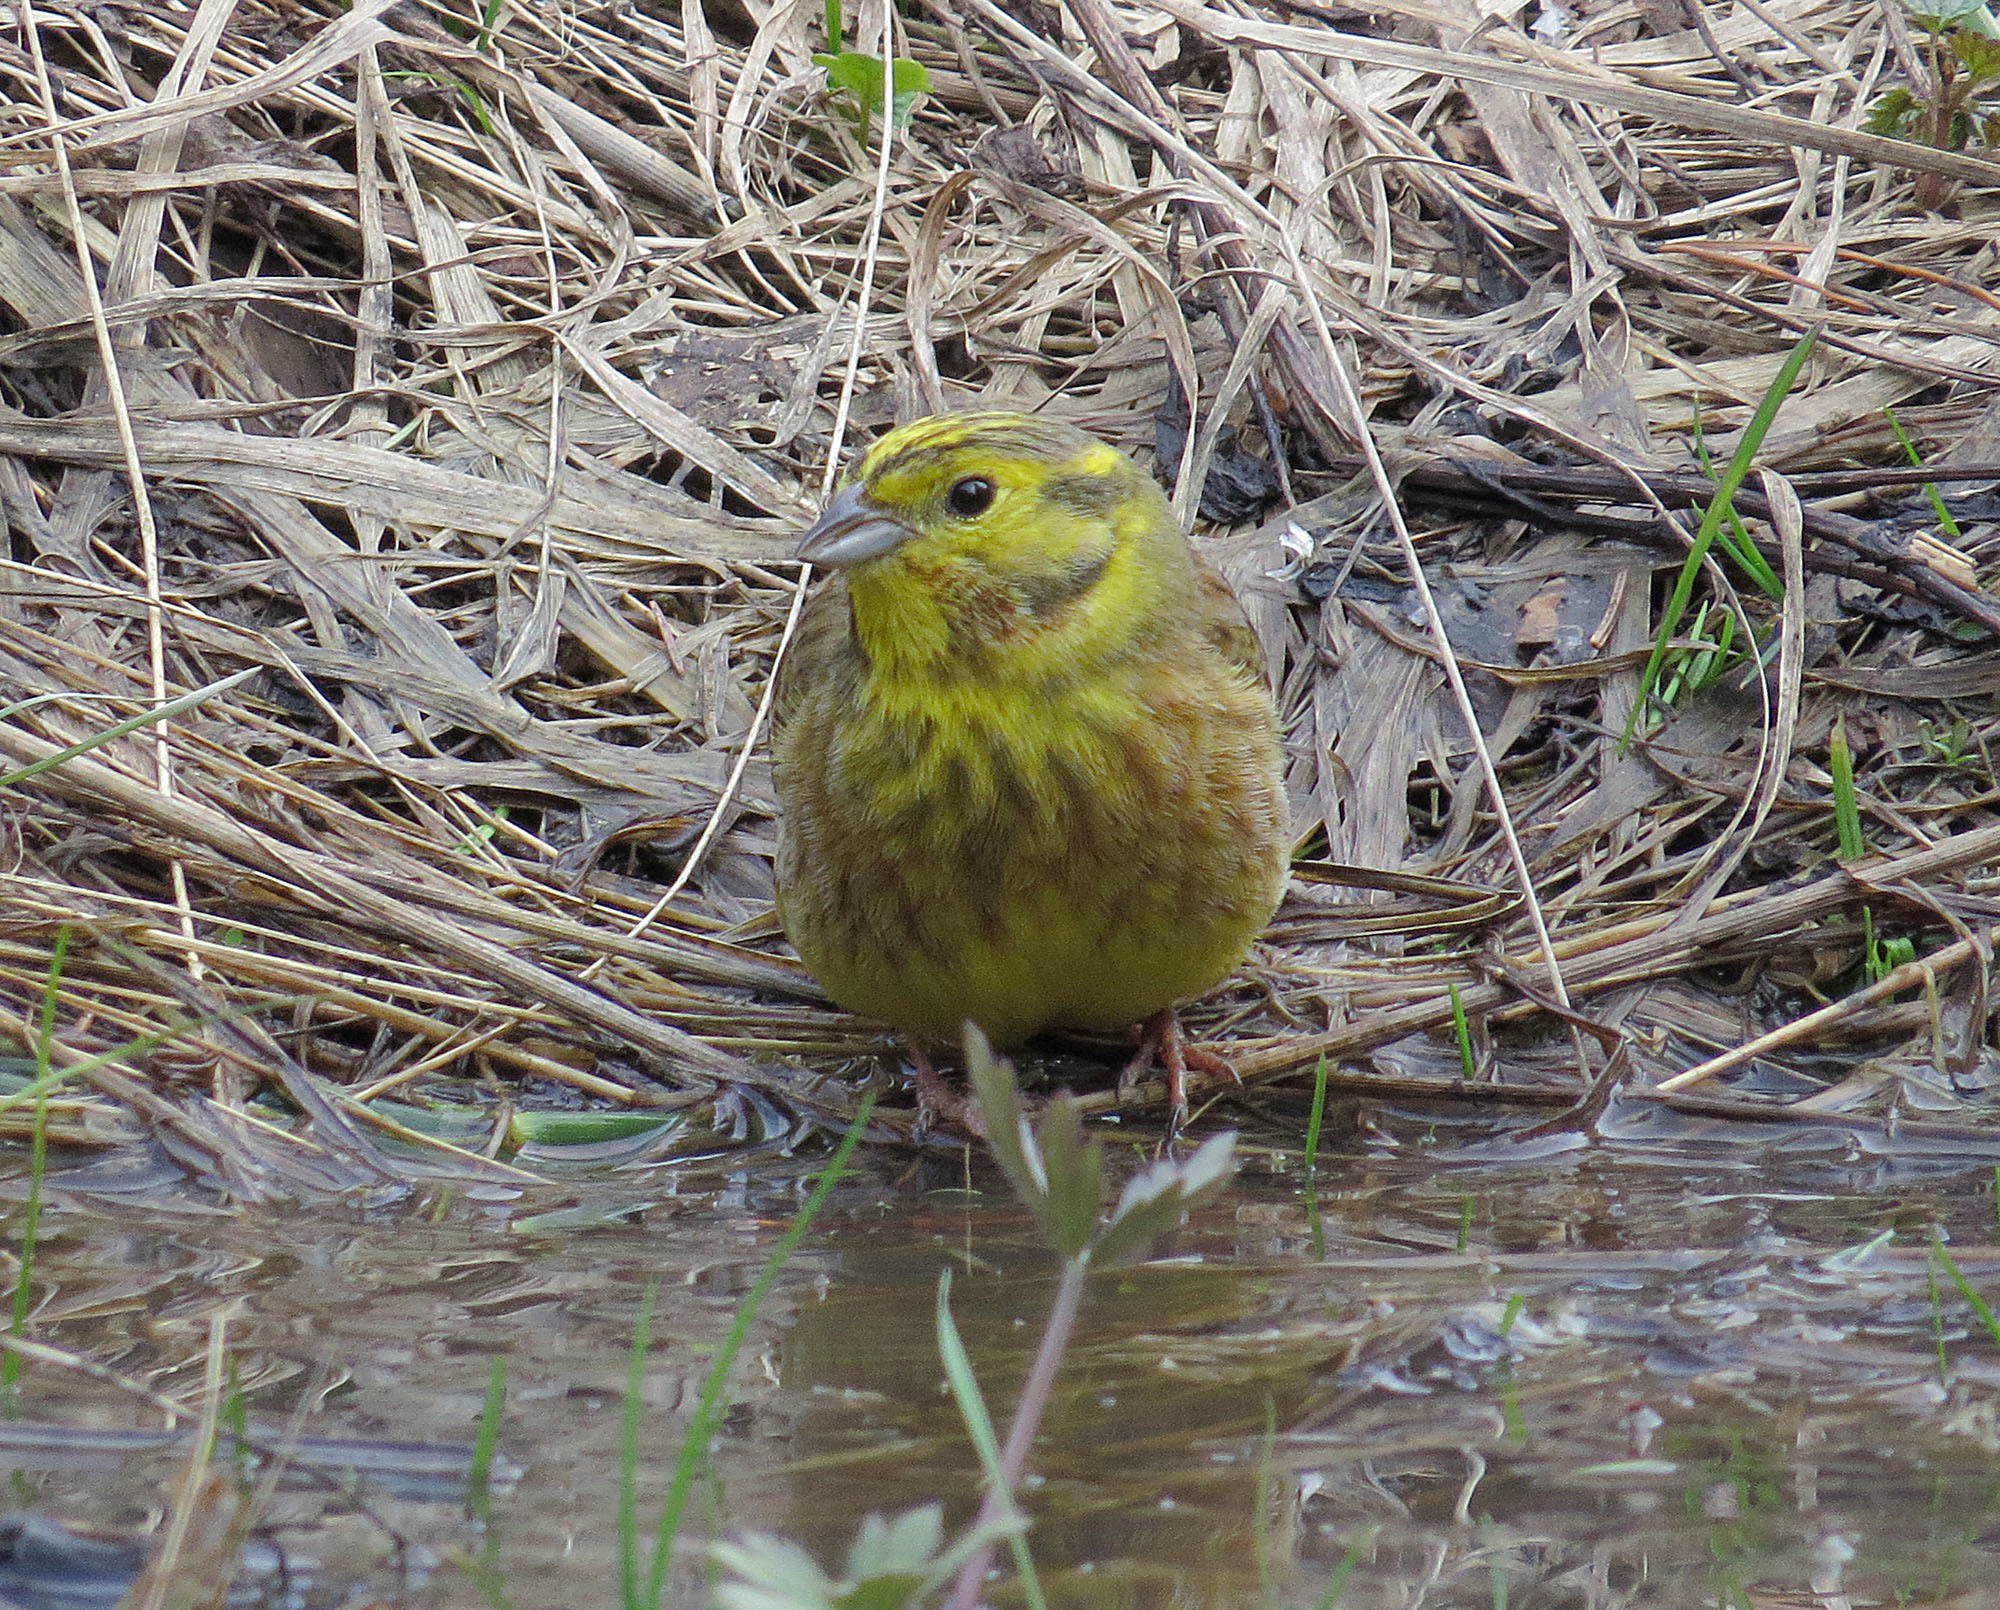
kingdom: Animalia
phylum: Chordata
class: Aves
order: Passeriformes
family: Emberizidae
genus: Emberiza
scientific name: Emberiza citrinella
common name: Yellowhammer
